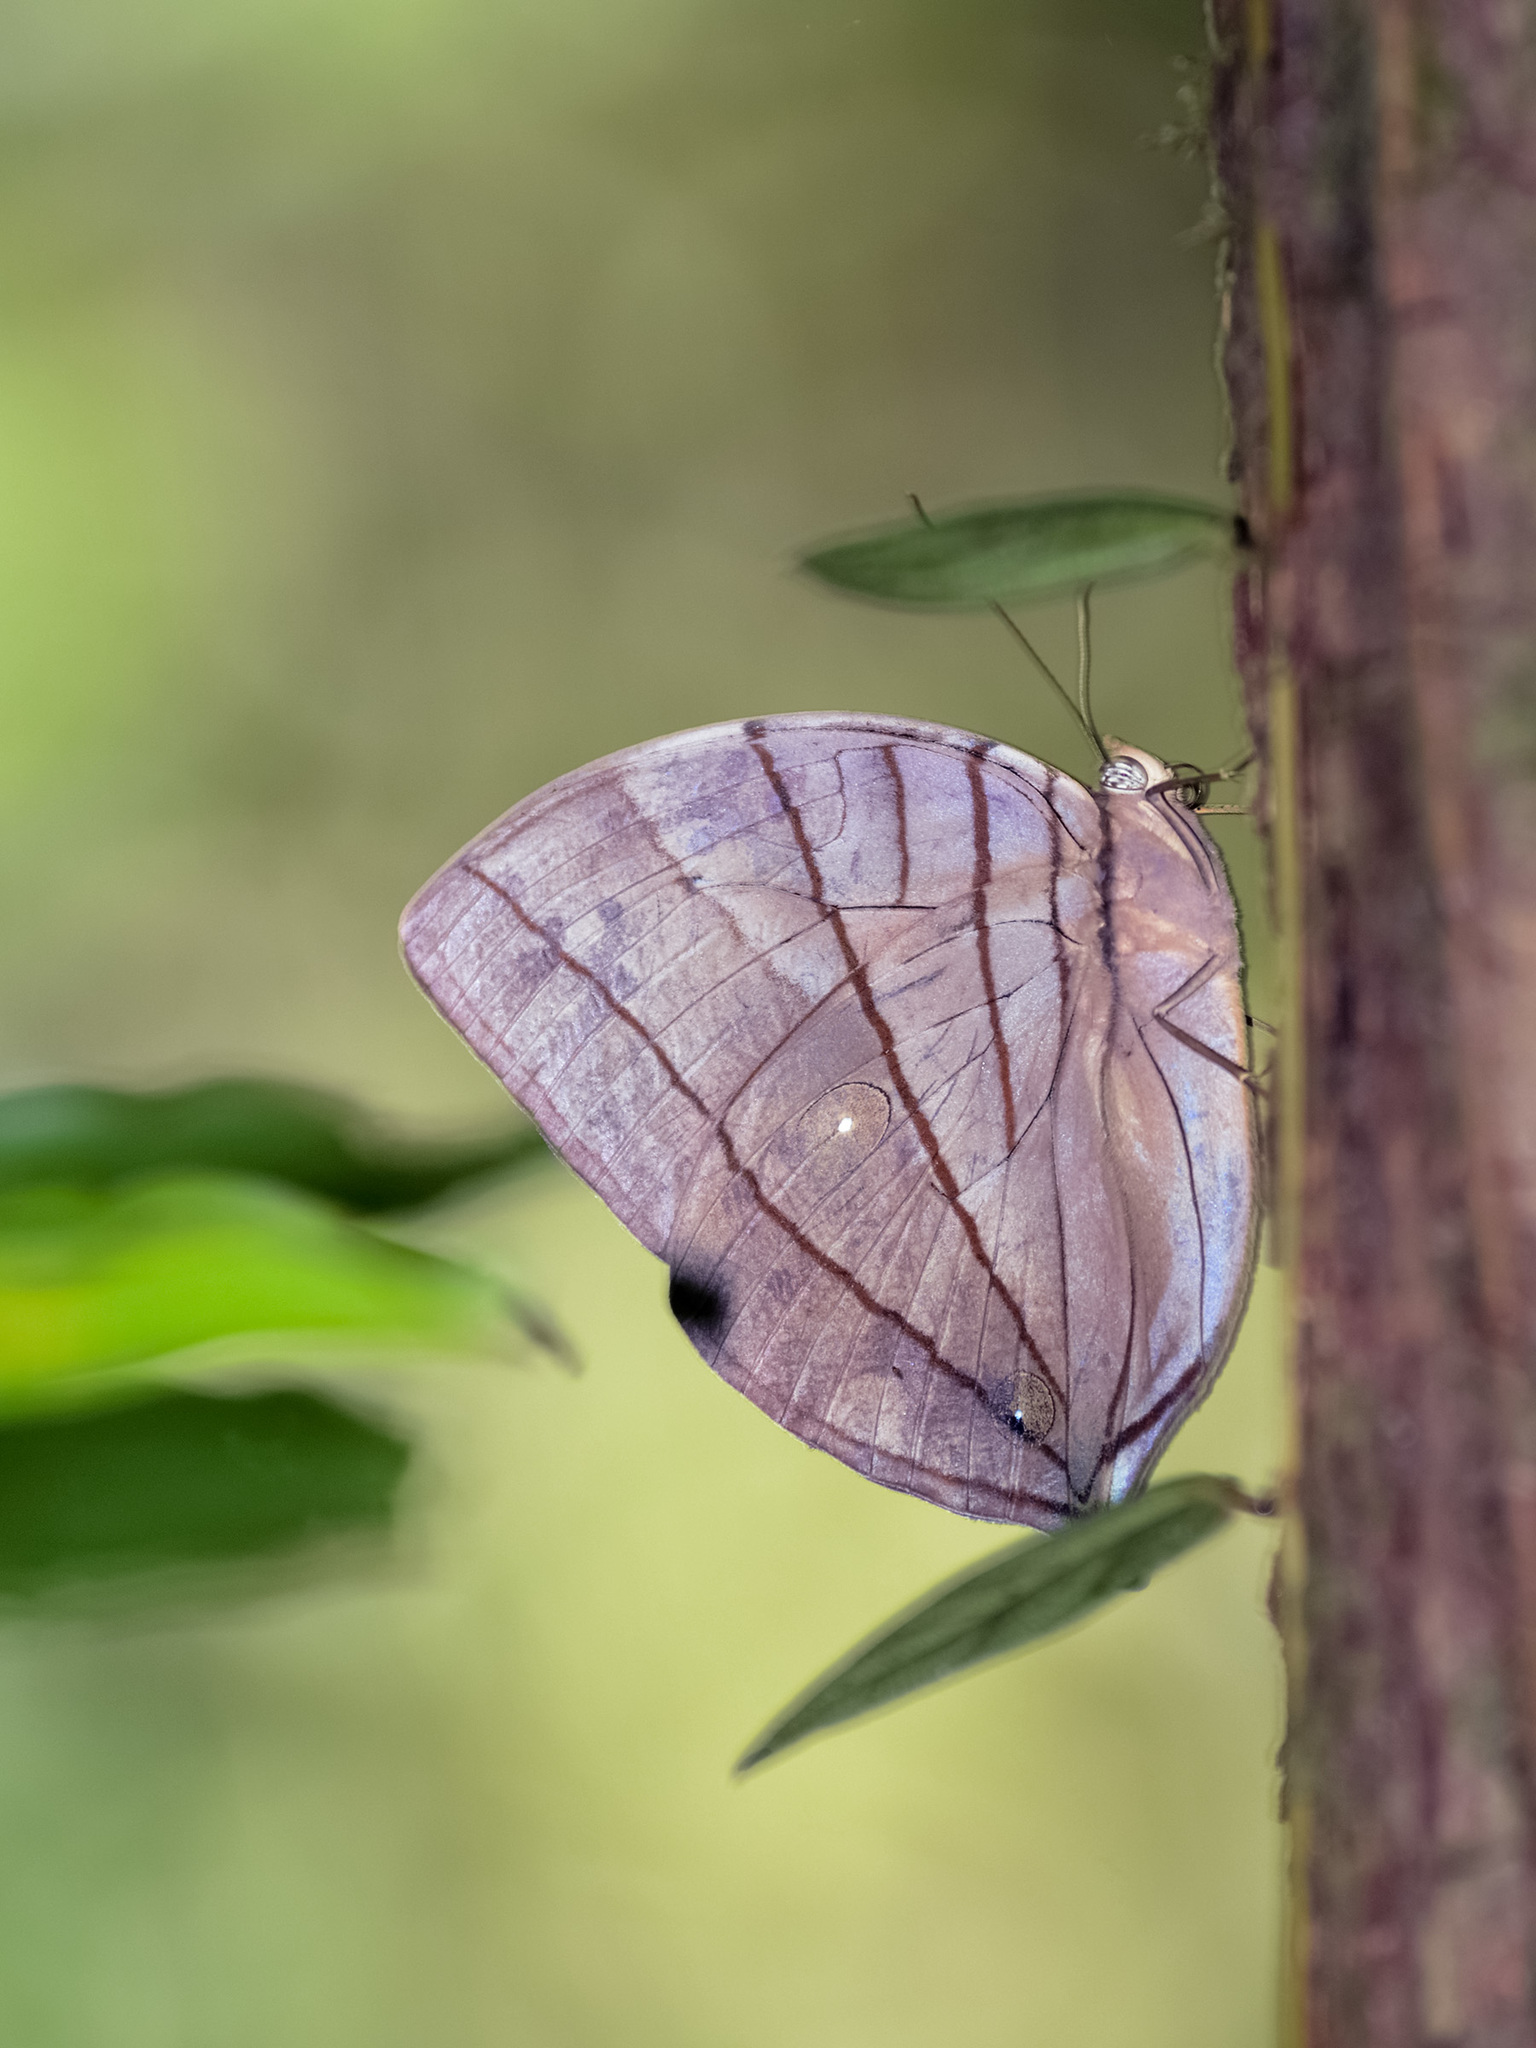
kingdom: Animalia
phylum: Arthropoda
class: Insecta
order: Lepidoptera
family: Nymphalidae
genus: Amathuxidia
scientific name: Amathuxidia amythaon
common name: Koh-i-noor
